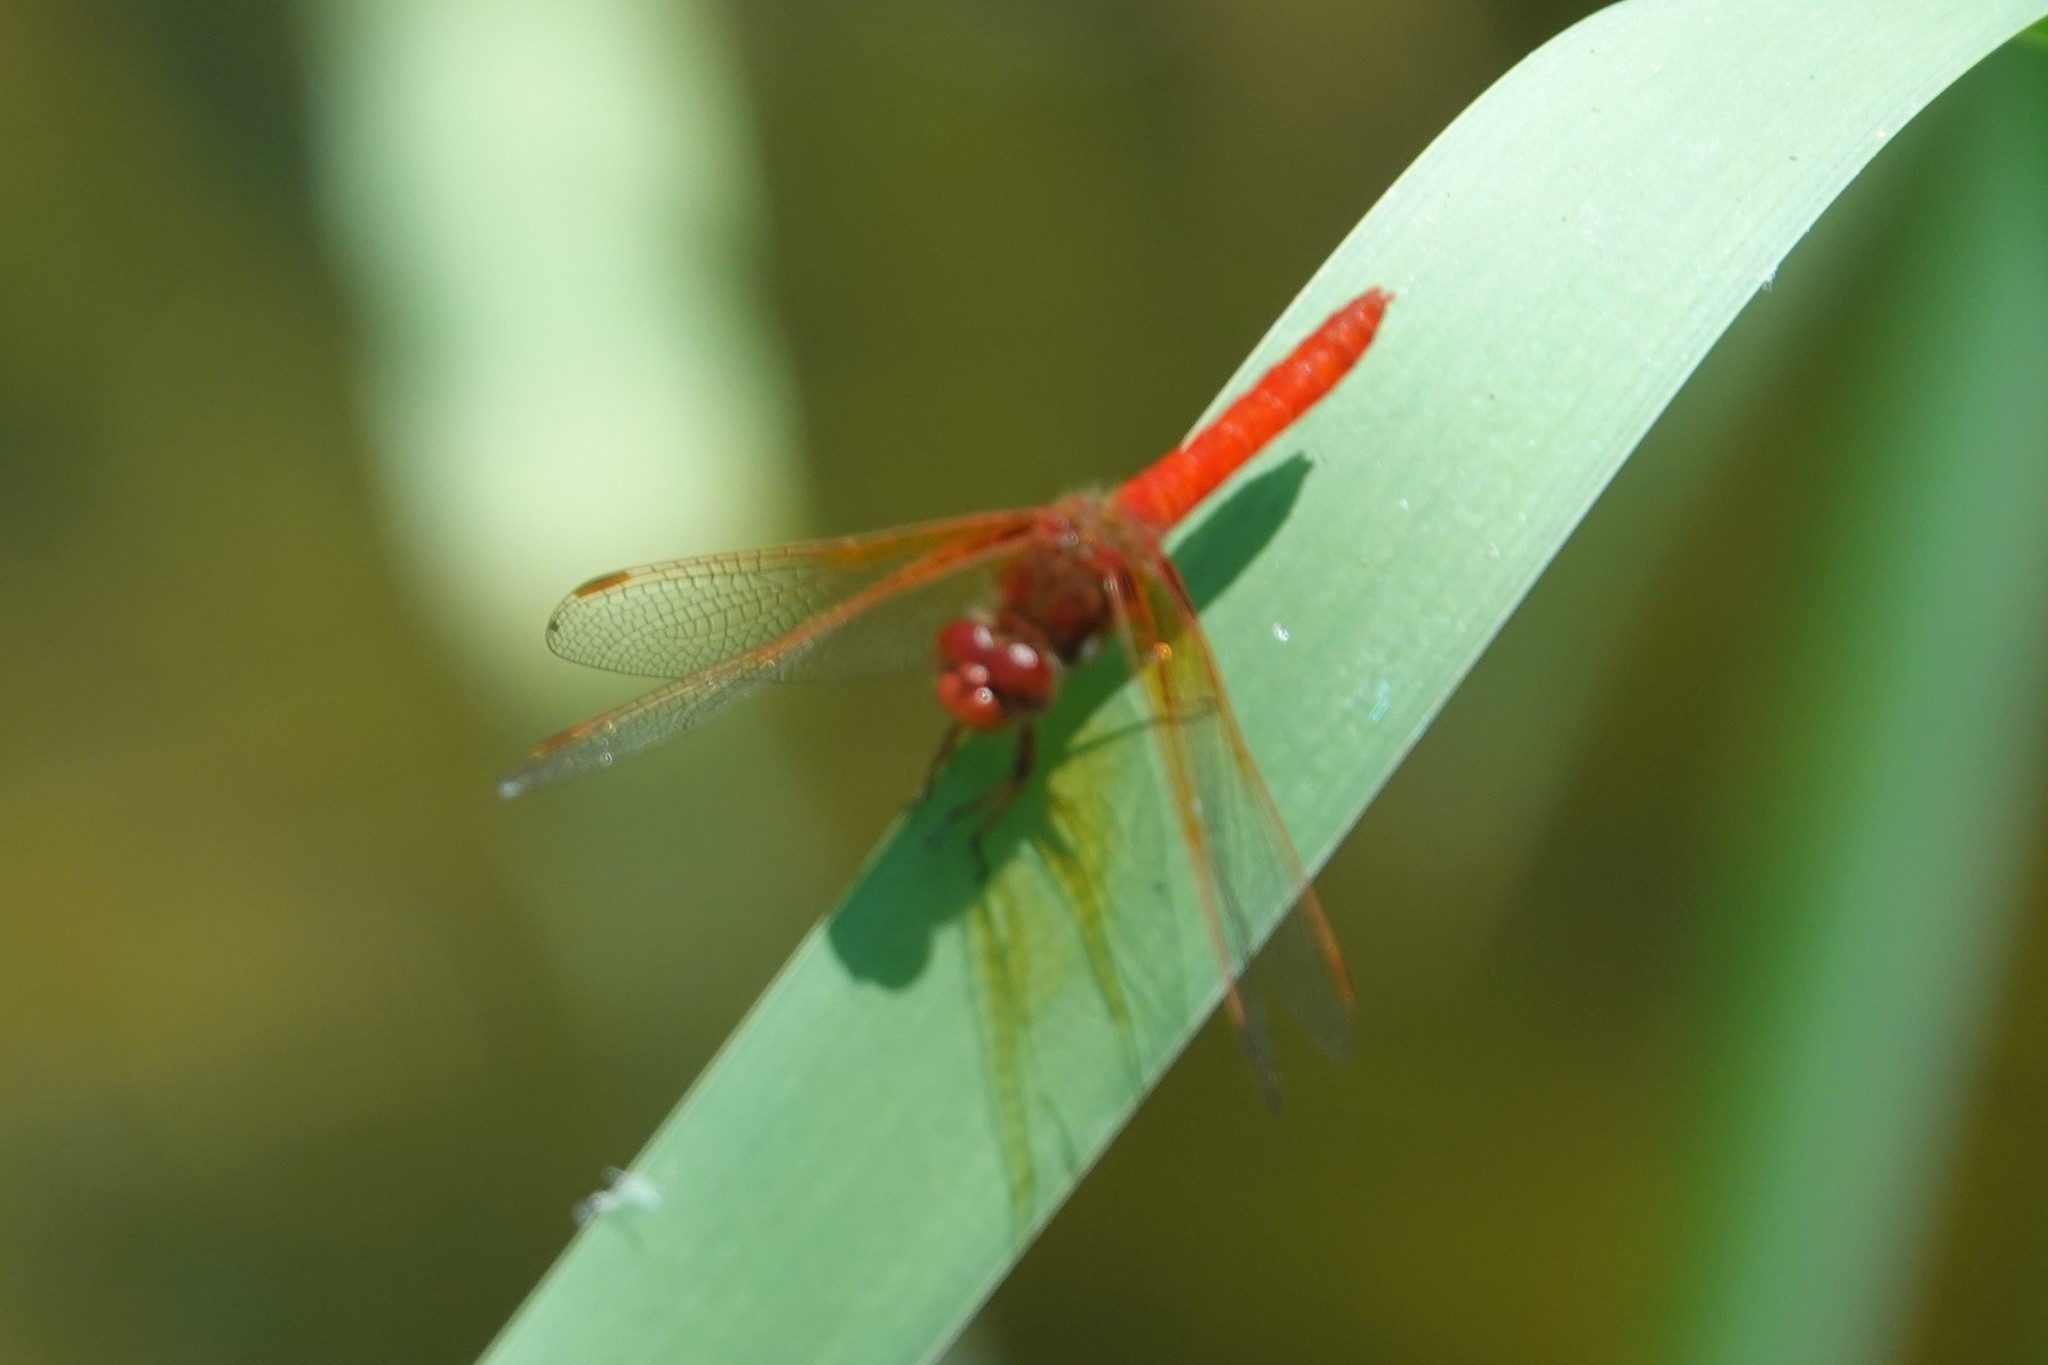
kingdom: Animalia
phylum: Arthropoda
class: Insecta
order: Odonata
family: Libellulidae
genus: Sympetrum
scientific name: Sympetrum illotum
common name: Cardinal meadowhawk
